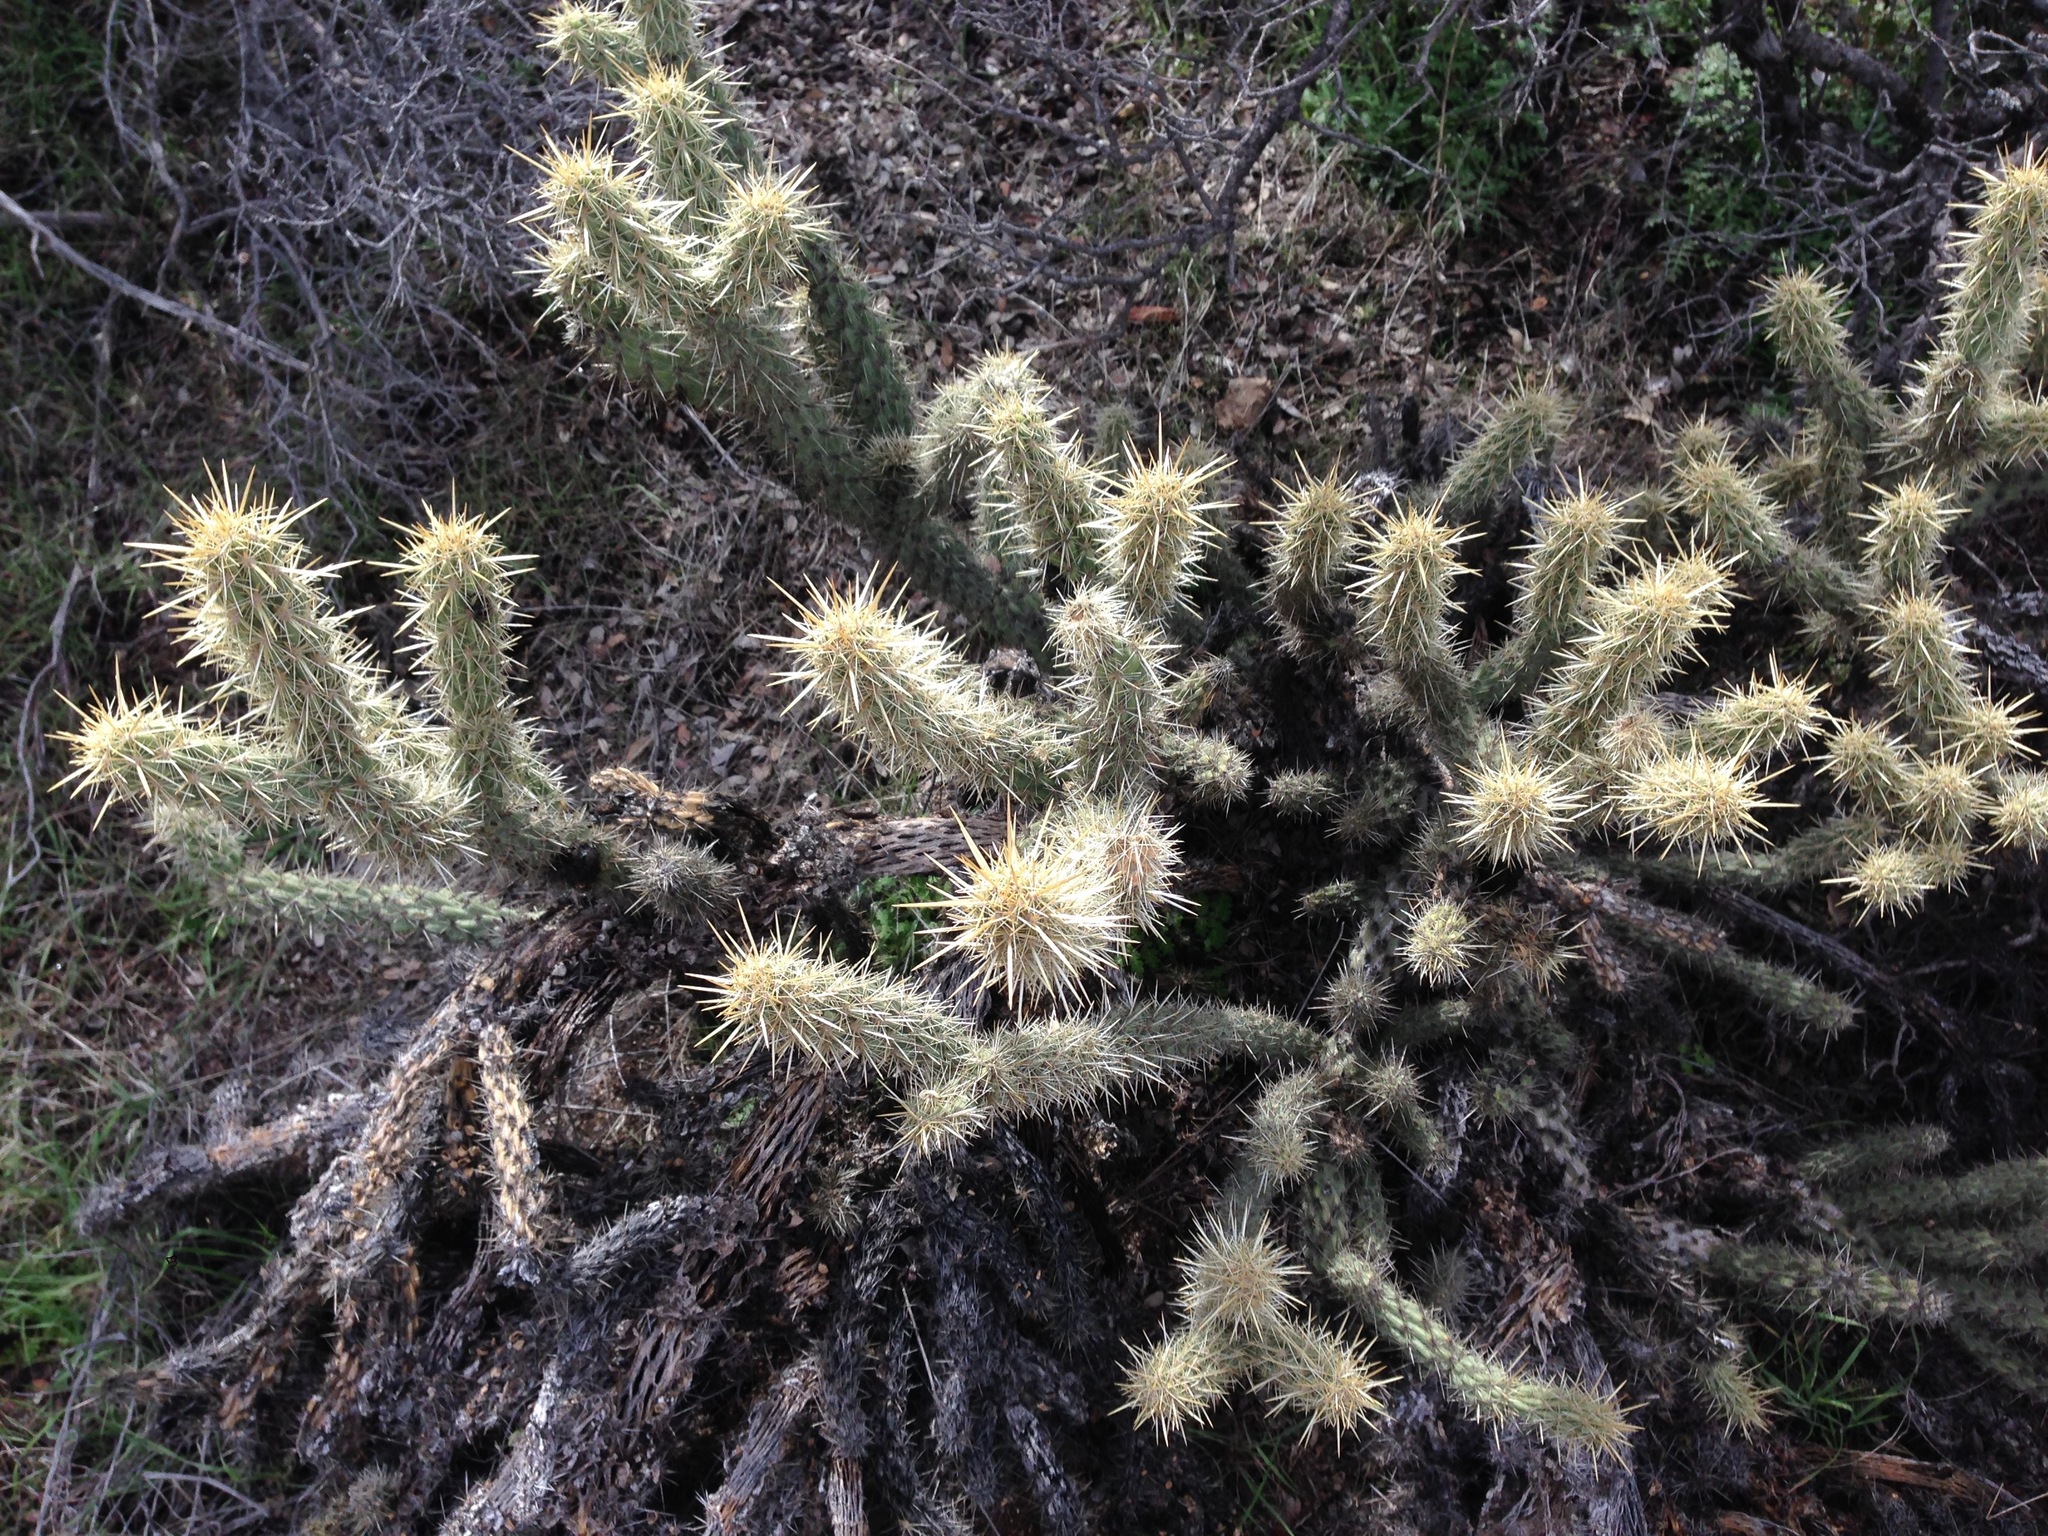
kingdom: Plantae
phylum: Tracheophyta
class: Magnoliopsida
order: Caryophyllales
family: Cactaceae
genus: Cylindropuntia
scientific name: Cylindropuntia ganderi
